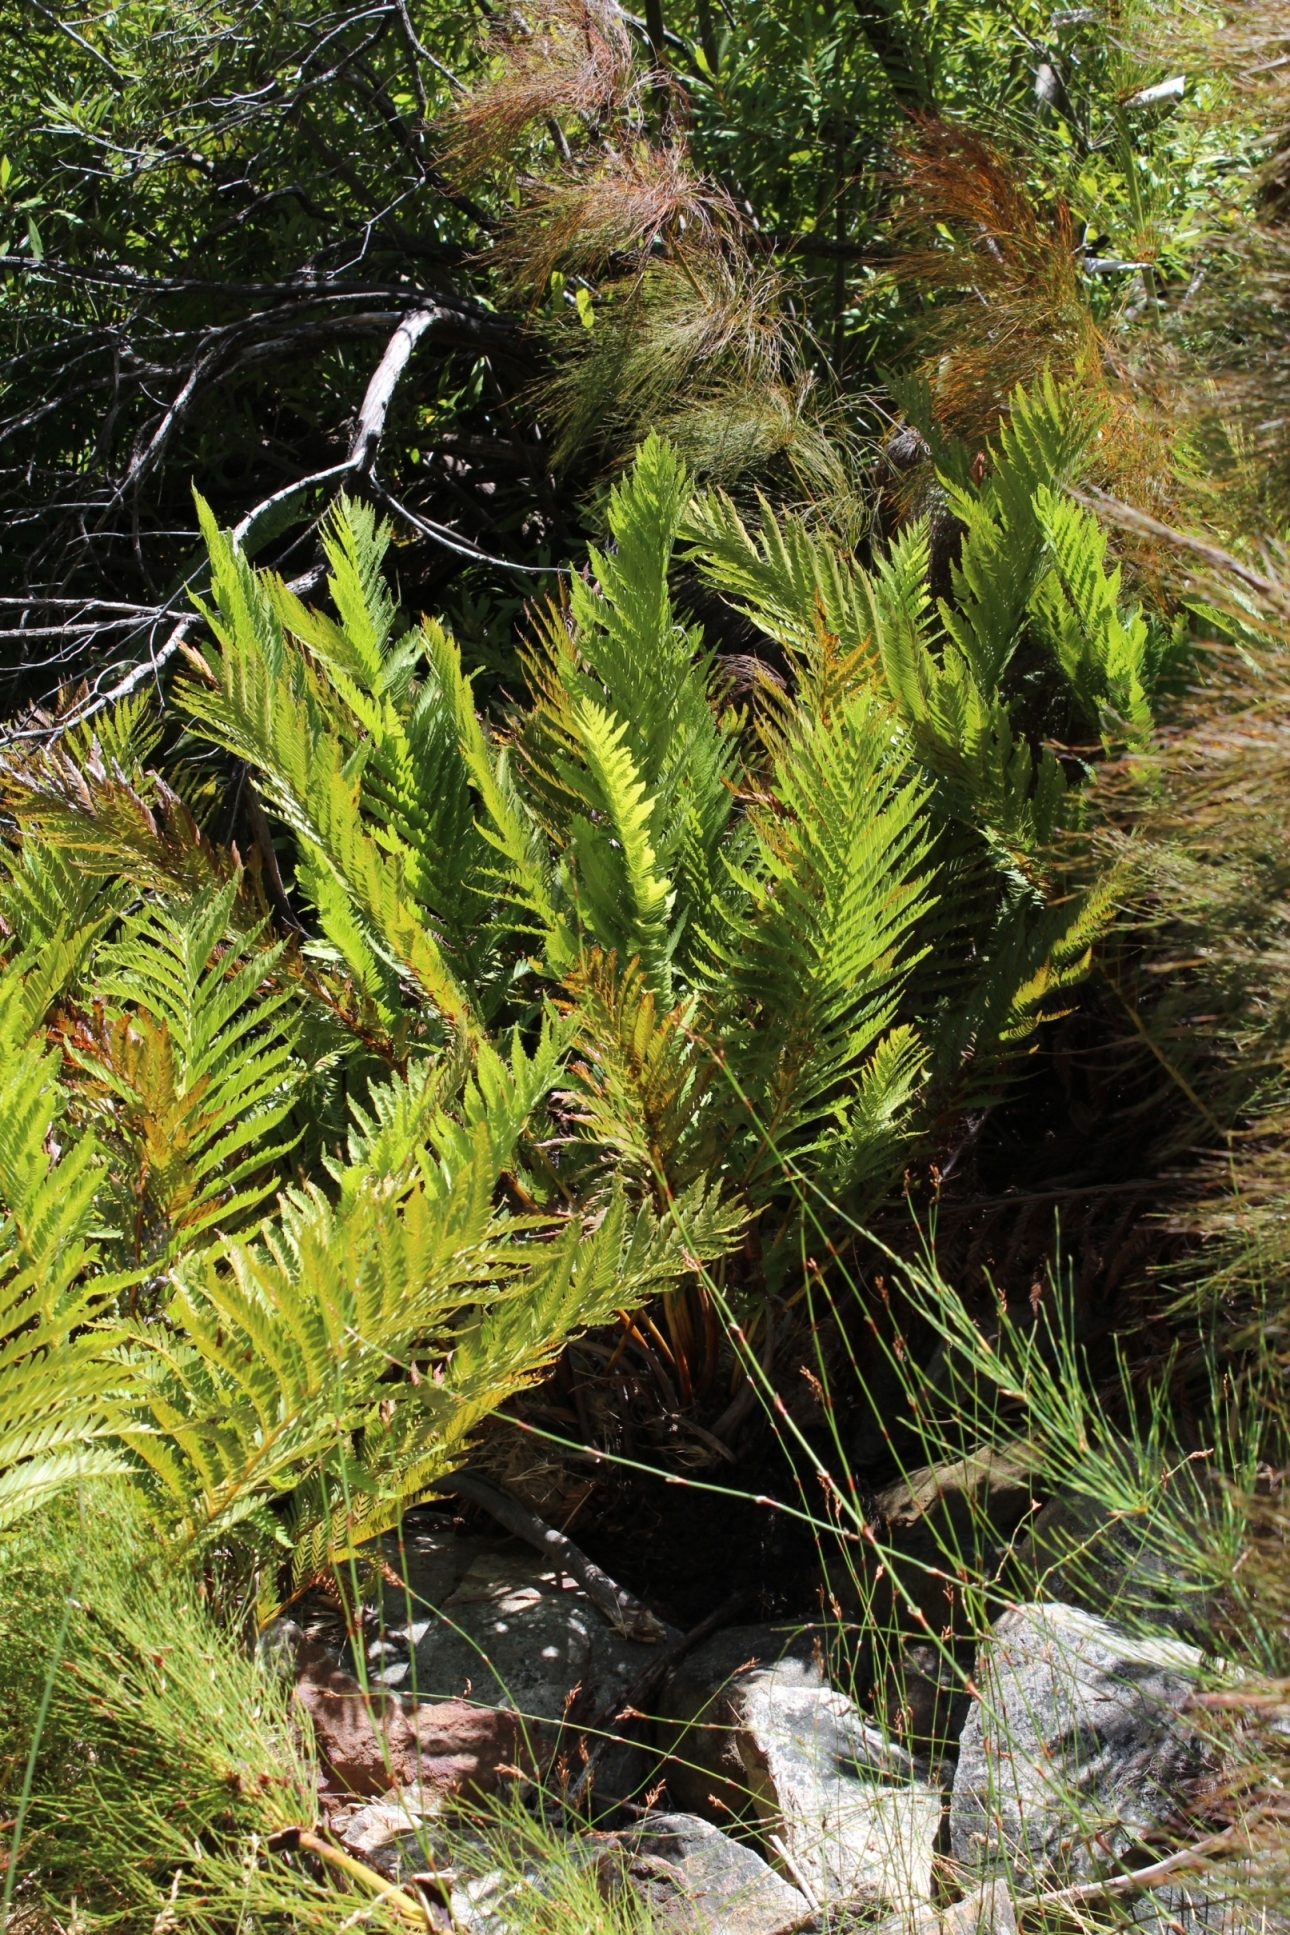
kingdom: Plantae
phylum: Tracheophyta
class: Polypodiopsida
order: Osmundales
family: Osmundaceae
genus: Todea
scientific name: Todea barbara
